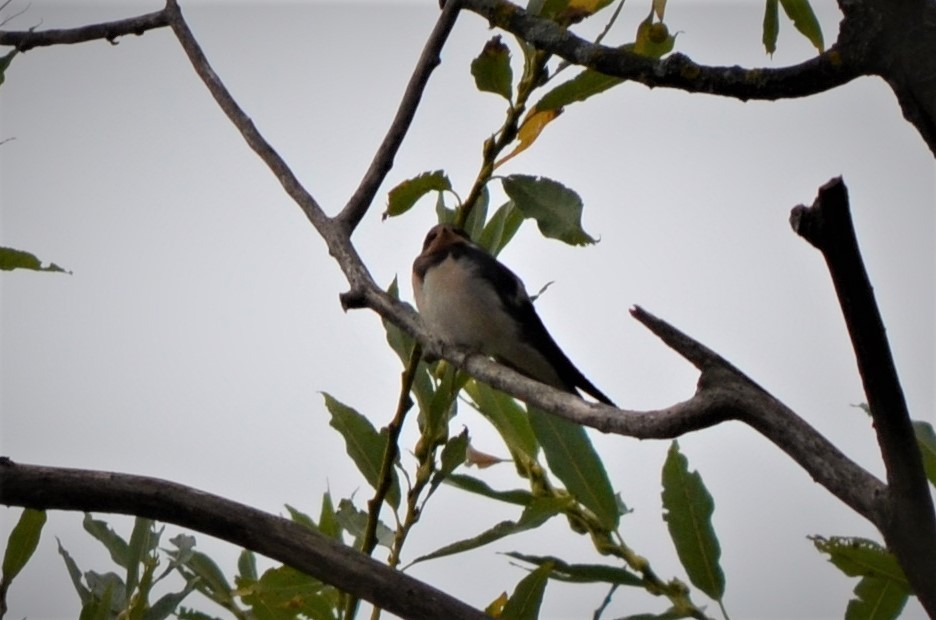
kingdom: Animalia
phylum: Chordata
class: Aves
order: Passeriformes
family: Hirundinidae
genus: Hirundo
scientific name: Hirundo rustica
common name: Barn swallow
